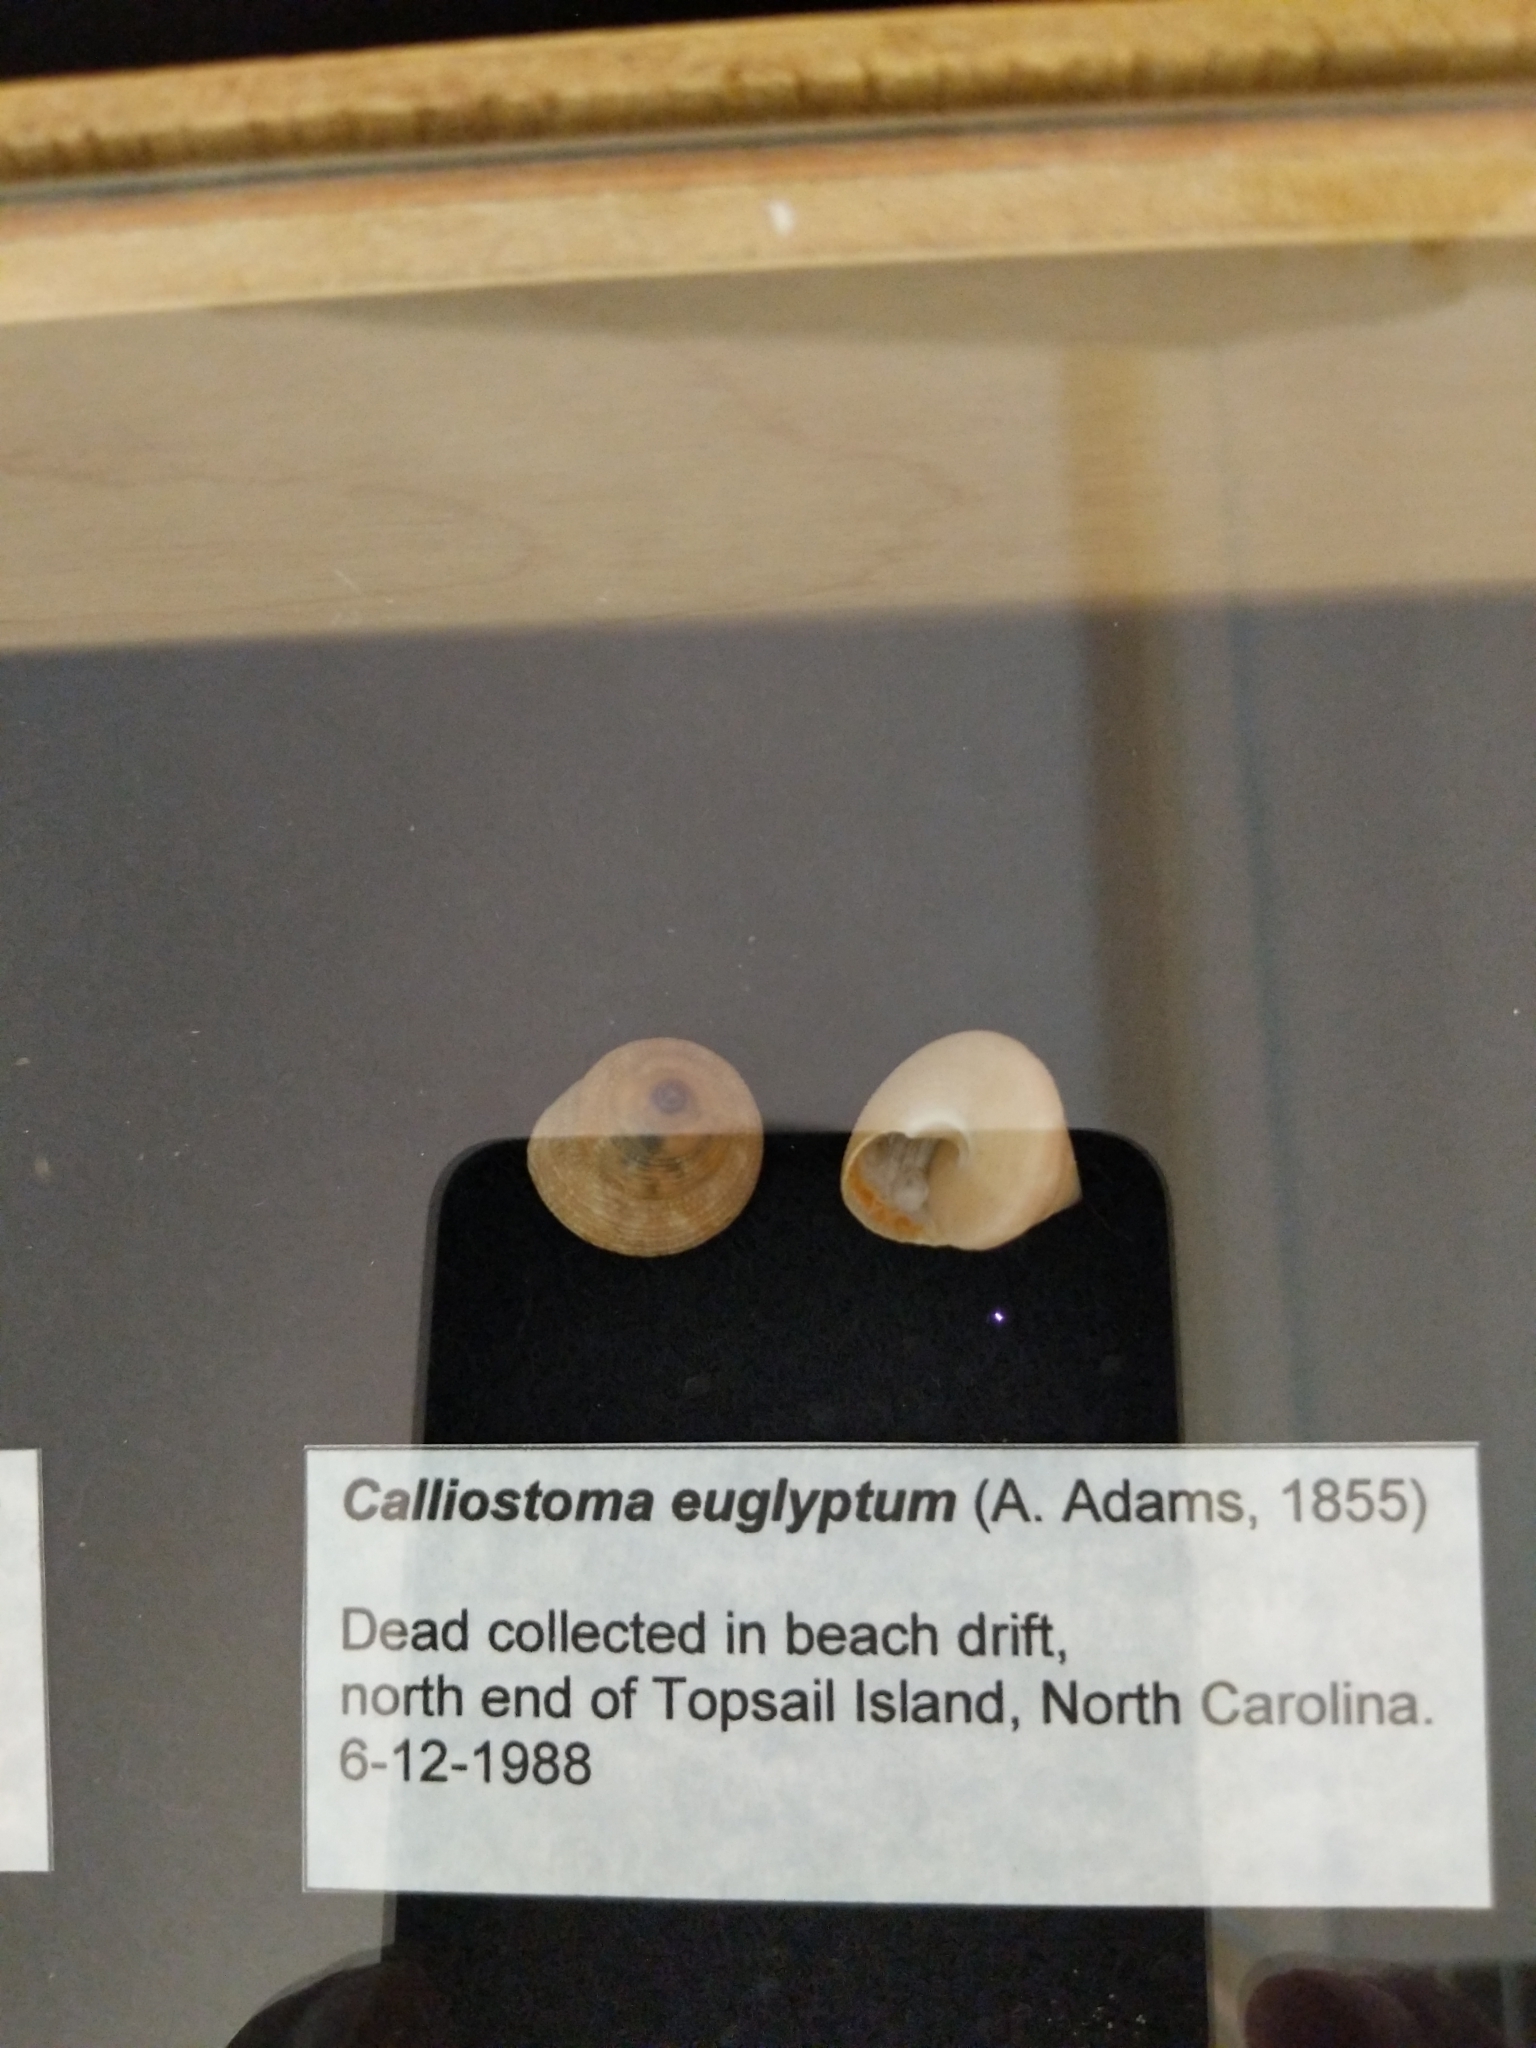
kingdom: Animalia
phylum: Mollusca
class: Gastropoda
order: Trochida
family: Calliostomatidae
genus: Calliostoma
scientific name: Calliostoma euglyptum
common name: Sculptured topsnail
